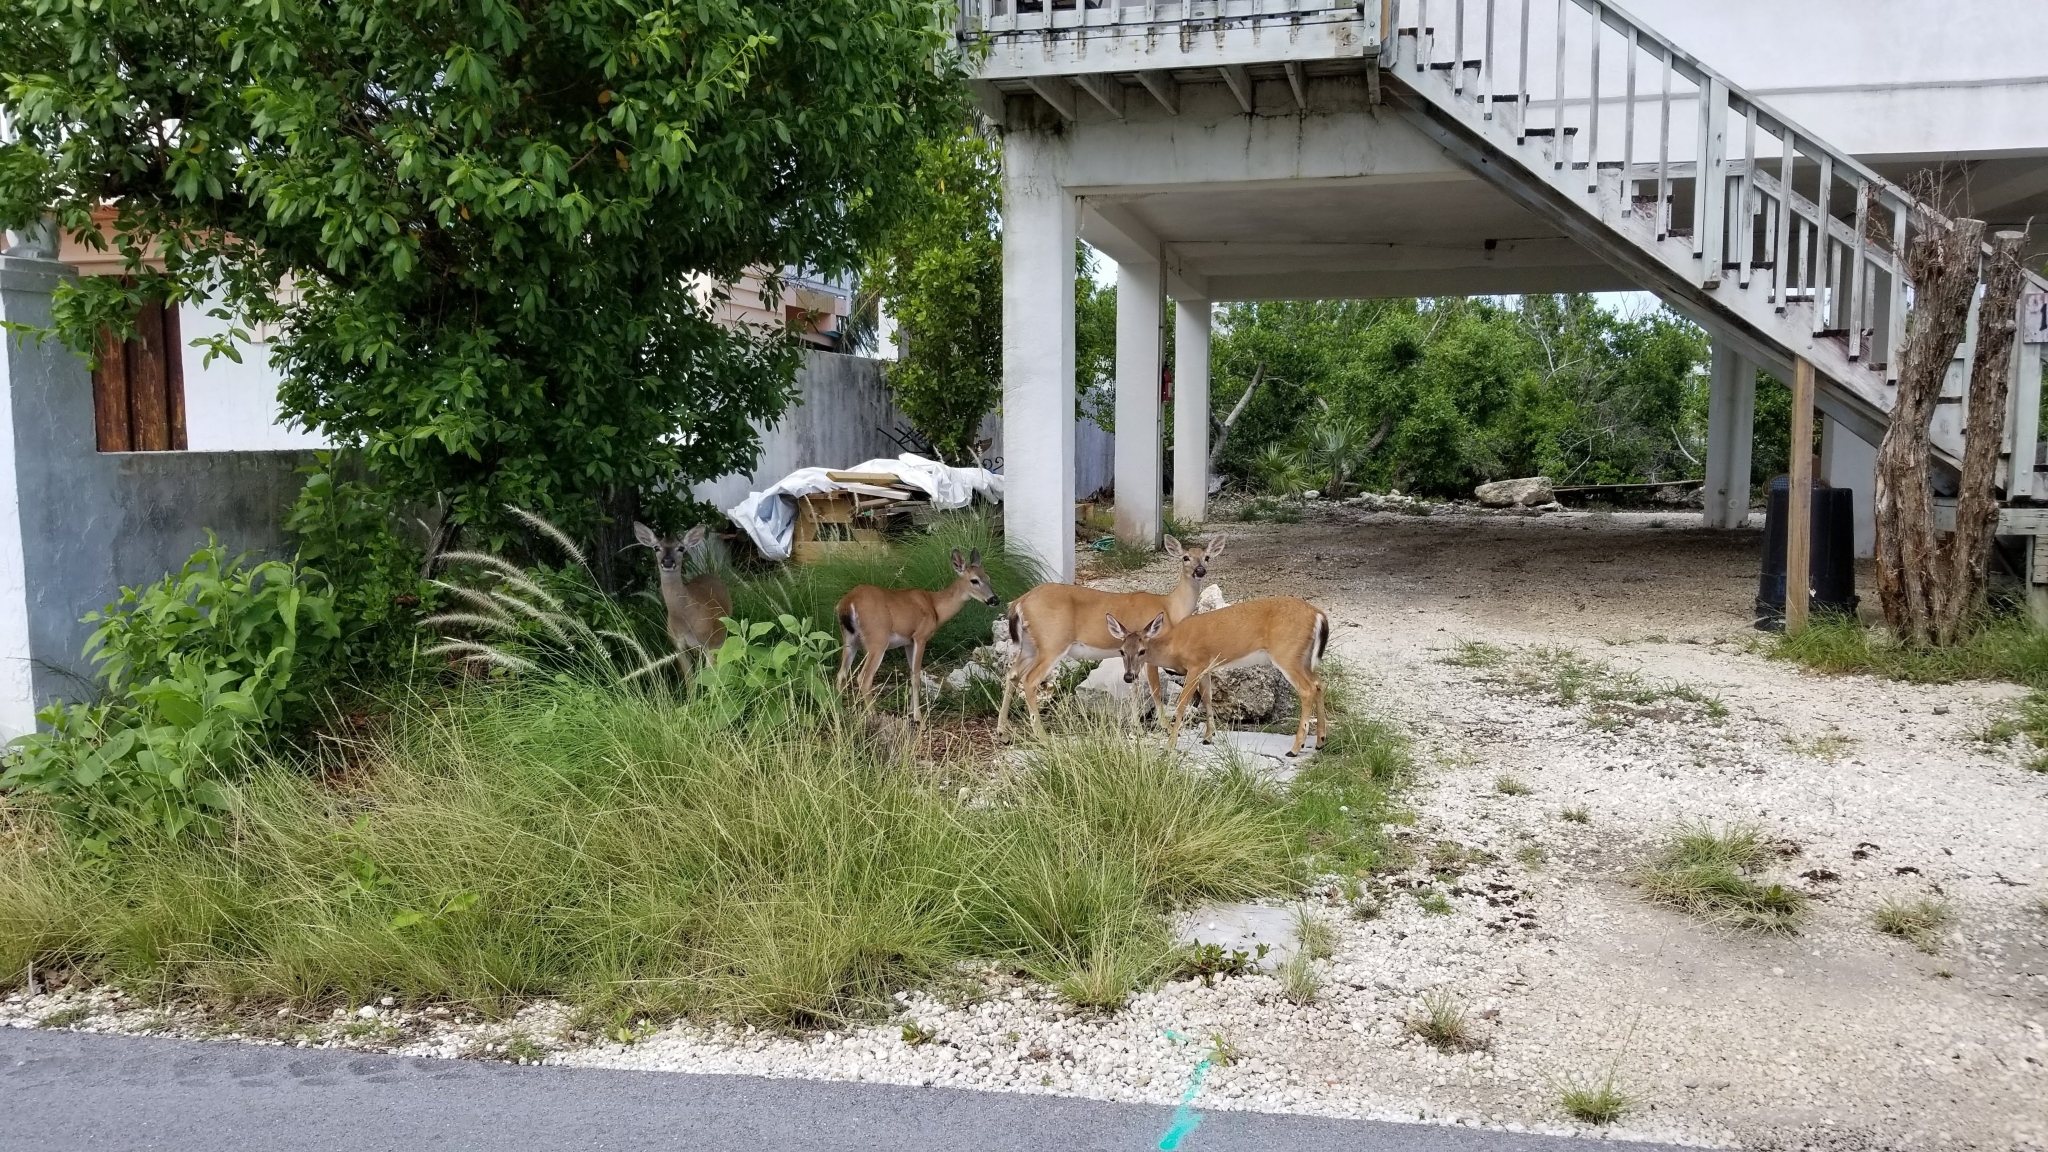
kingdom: Animalia
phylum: Chordata
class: Mammalia
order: Artiodactyla
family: Cervidae
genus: Odocoileus
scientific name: Odocoileus virginianus
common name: White-tailed deer
